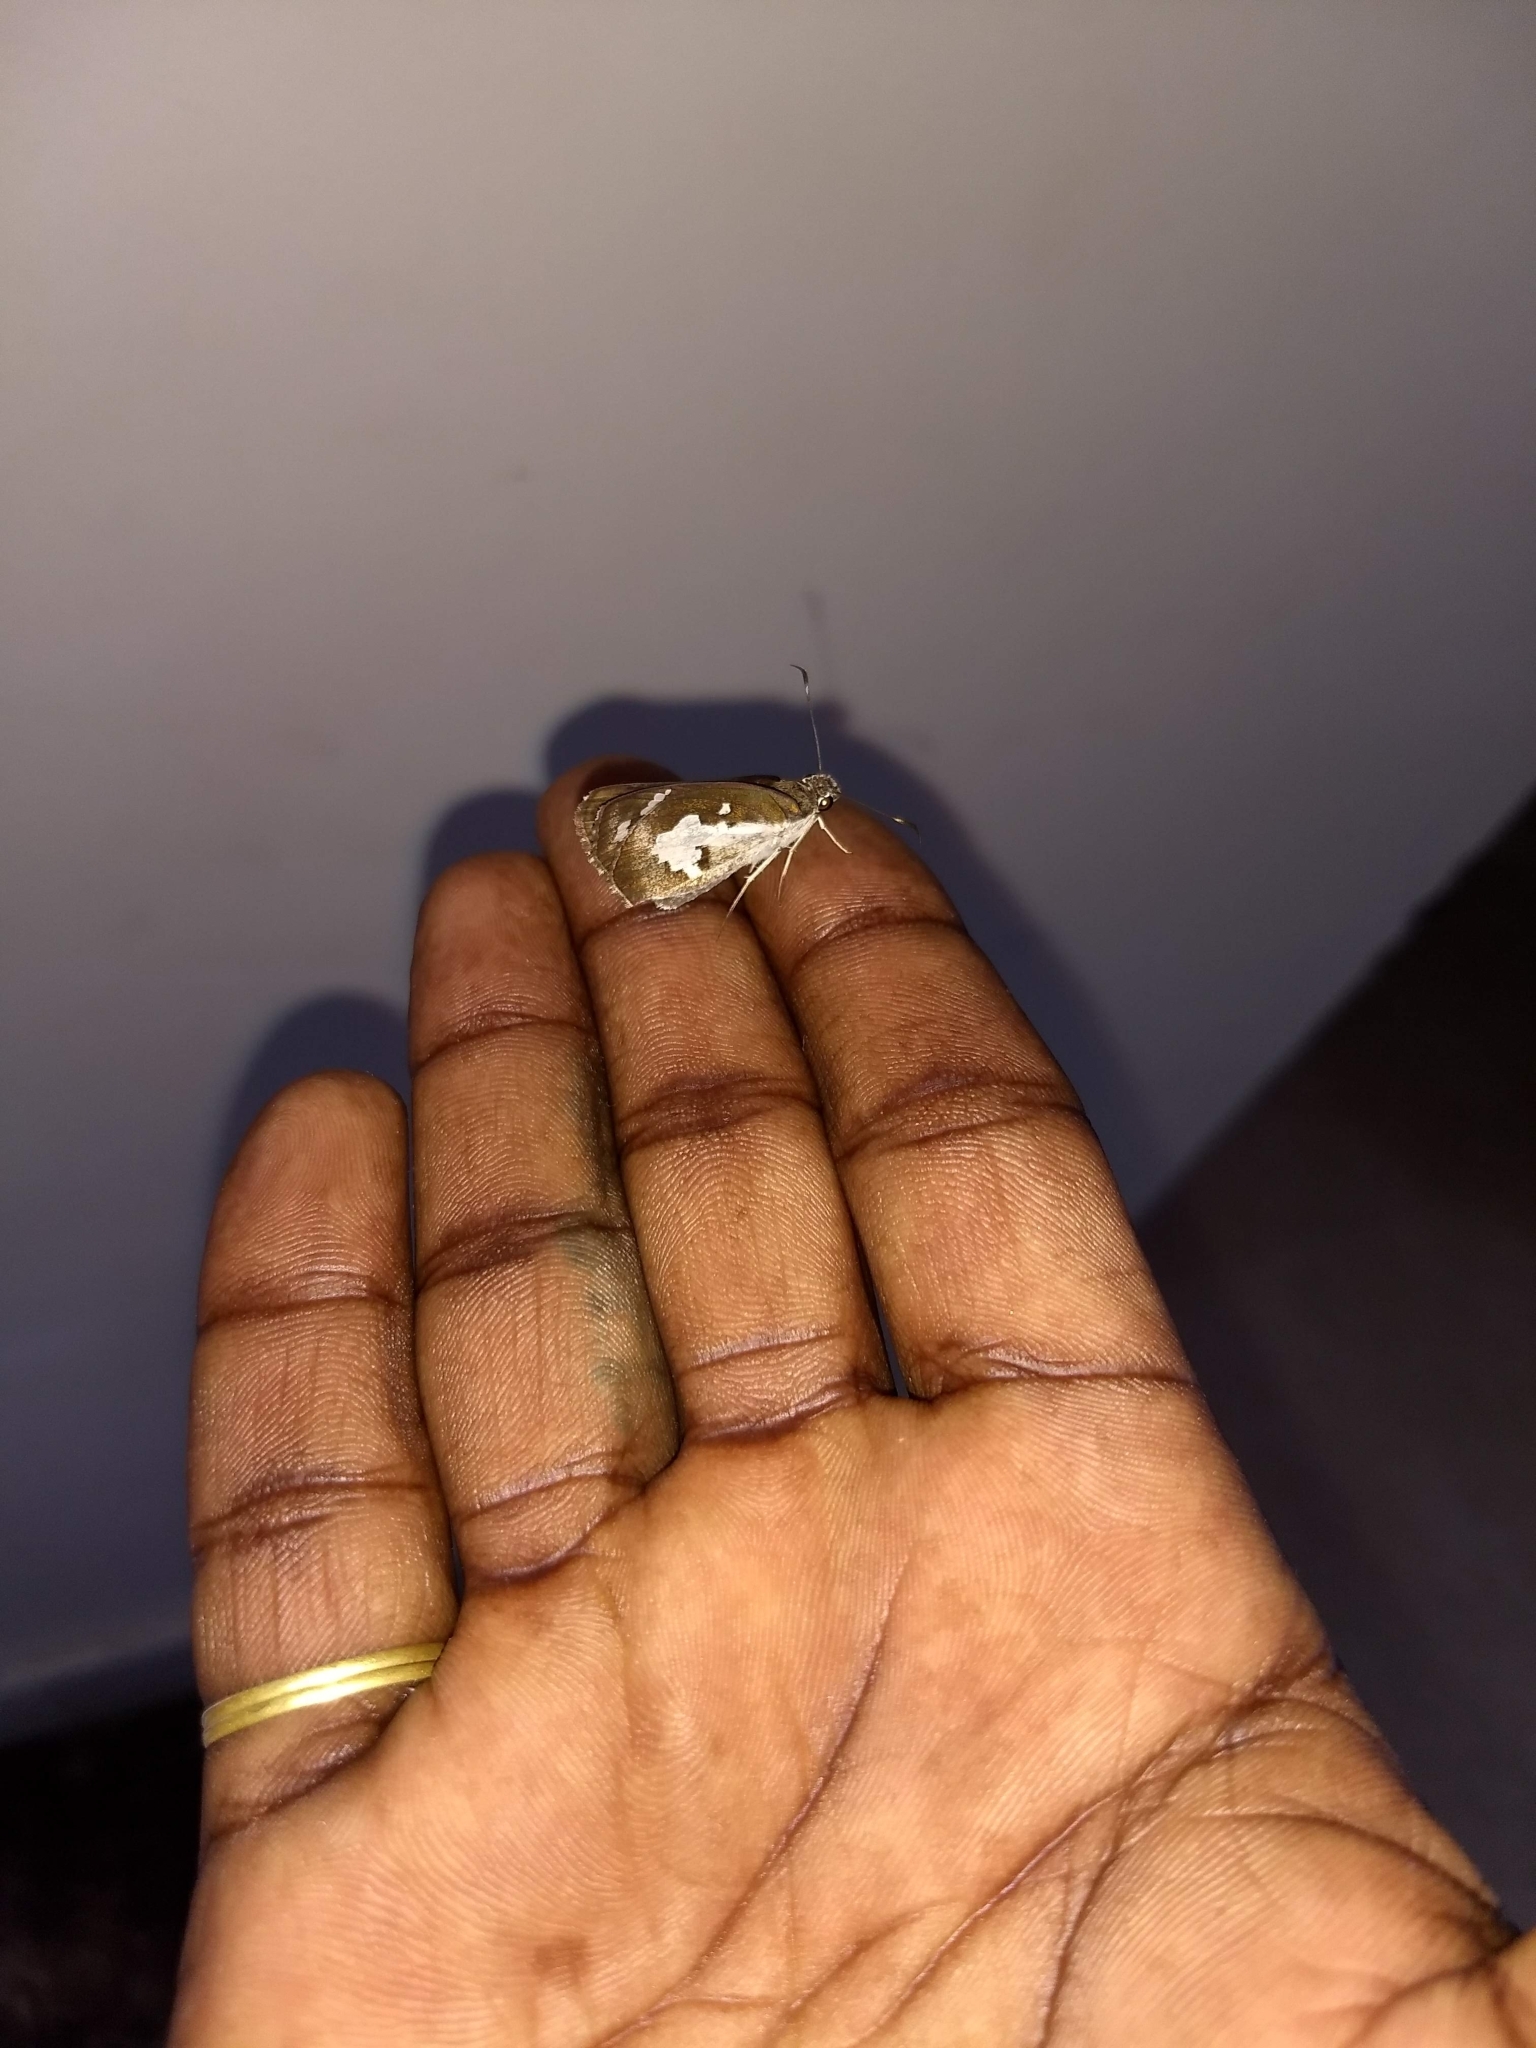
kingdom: Animalia
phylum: Arthropoda
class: Insecta
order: Lepidoptera
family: Hesperiidae
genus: Udaspes
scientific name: Udaspes folus
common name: Grass demon
